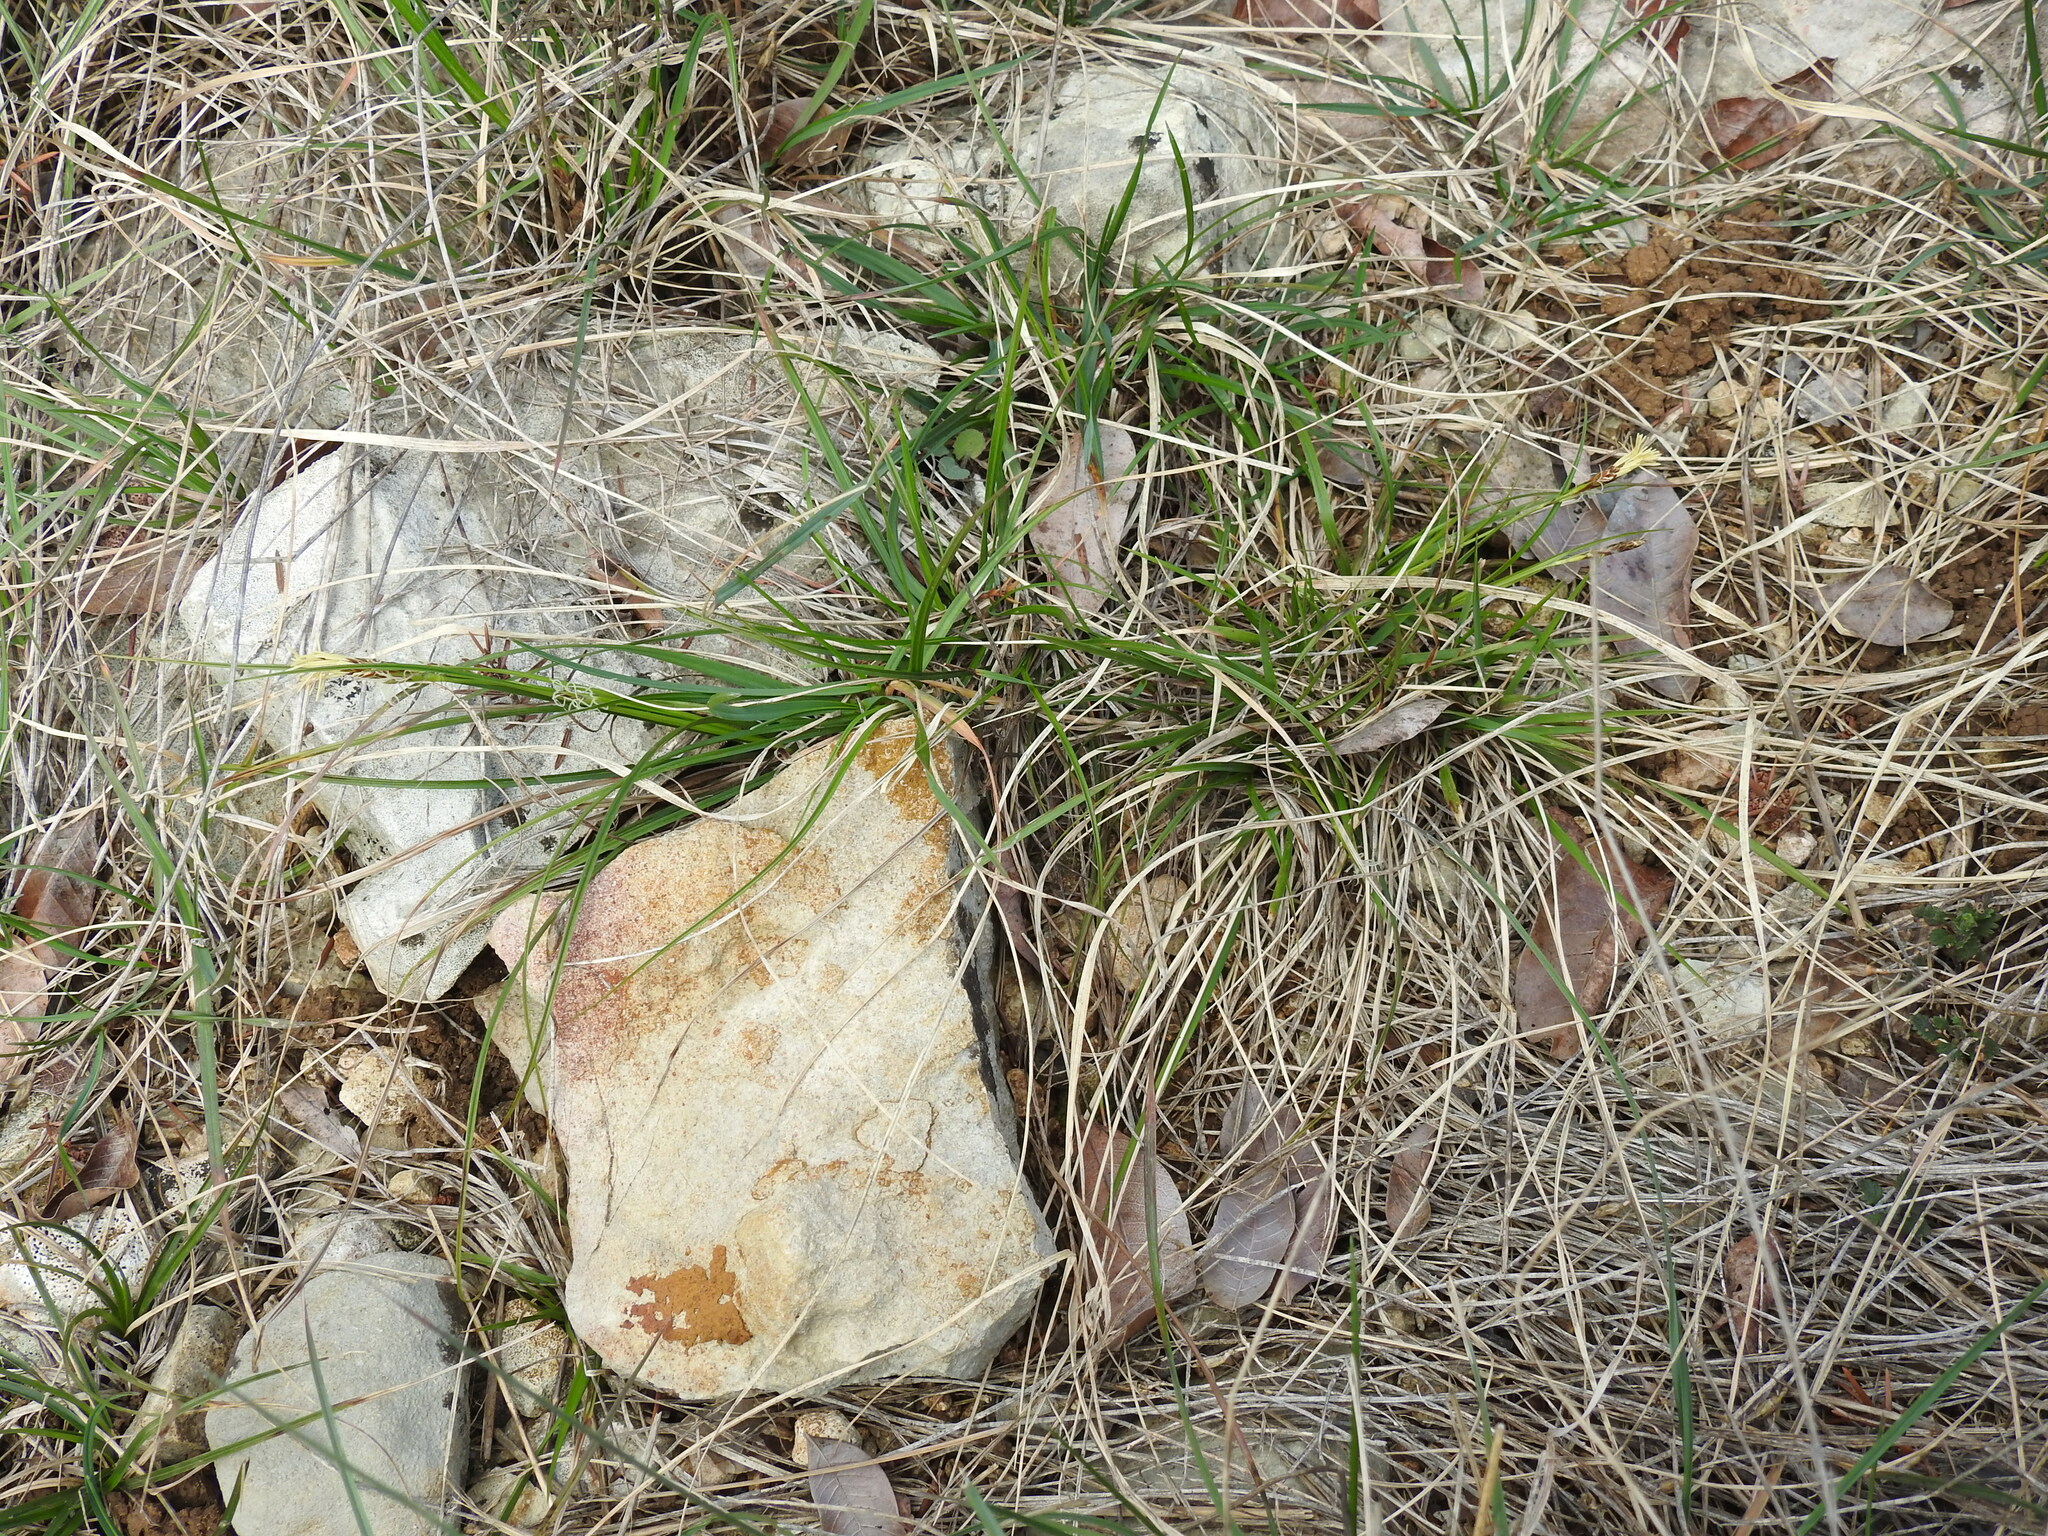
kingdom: Plantae
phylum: Tracheophyta
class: Liliopsida
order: Poales
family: Cyperaceae
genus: Carex
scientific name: Carex halleriana
